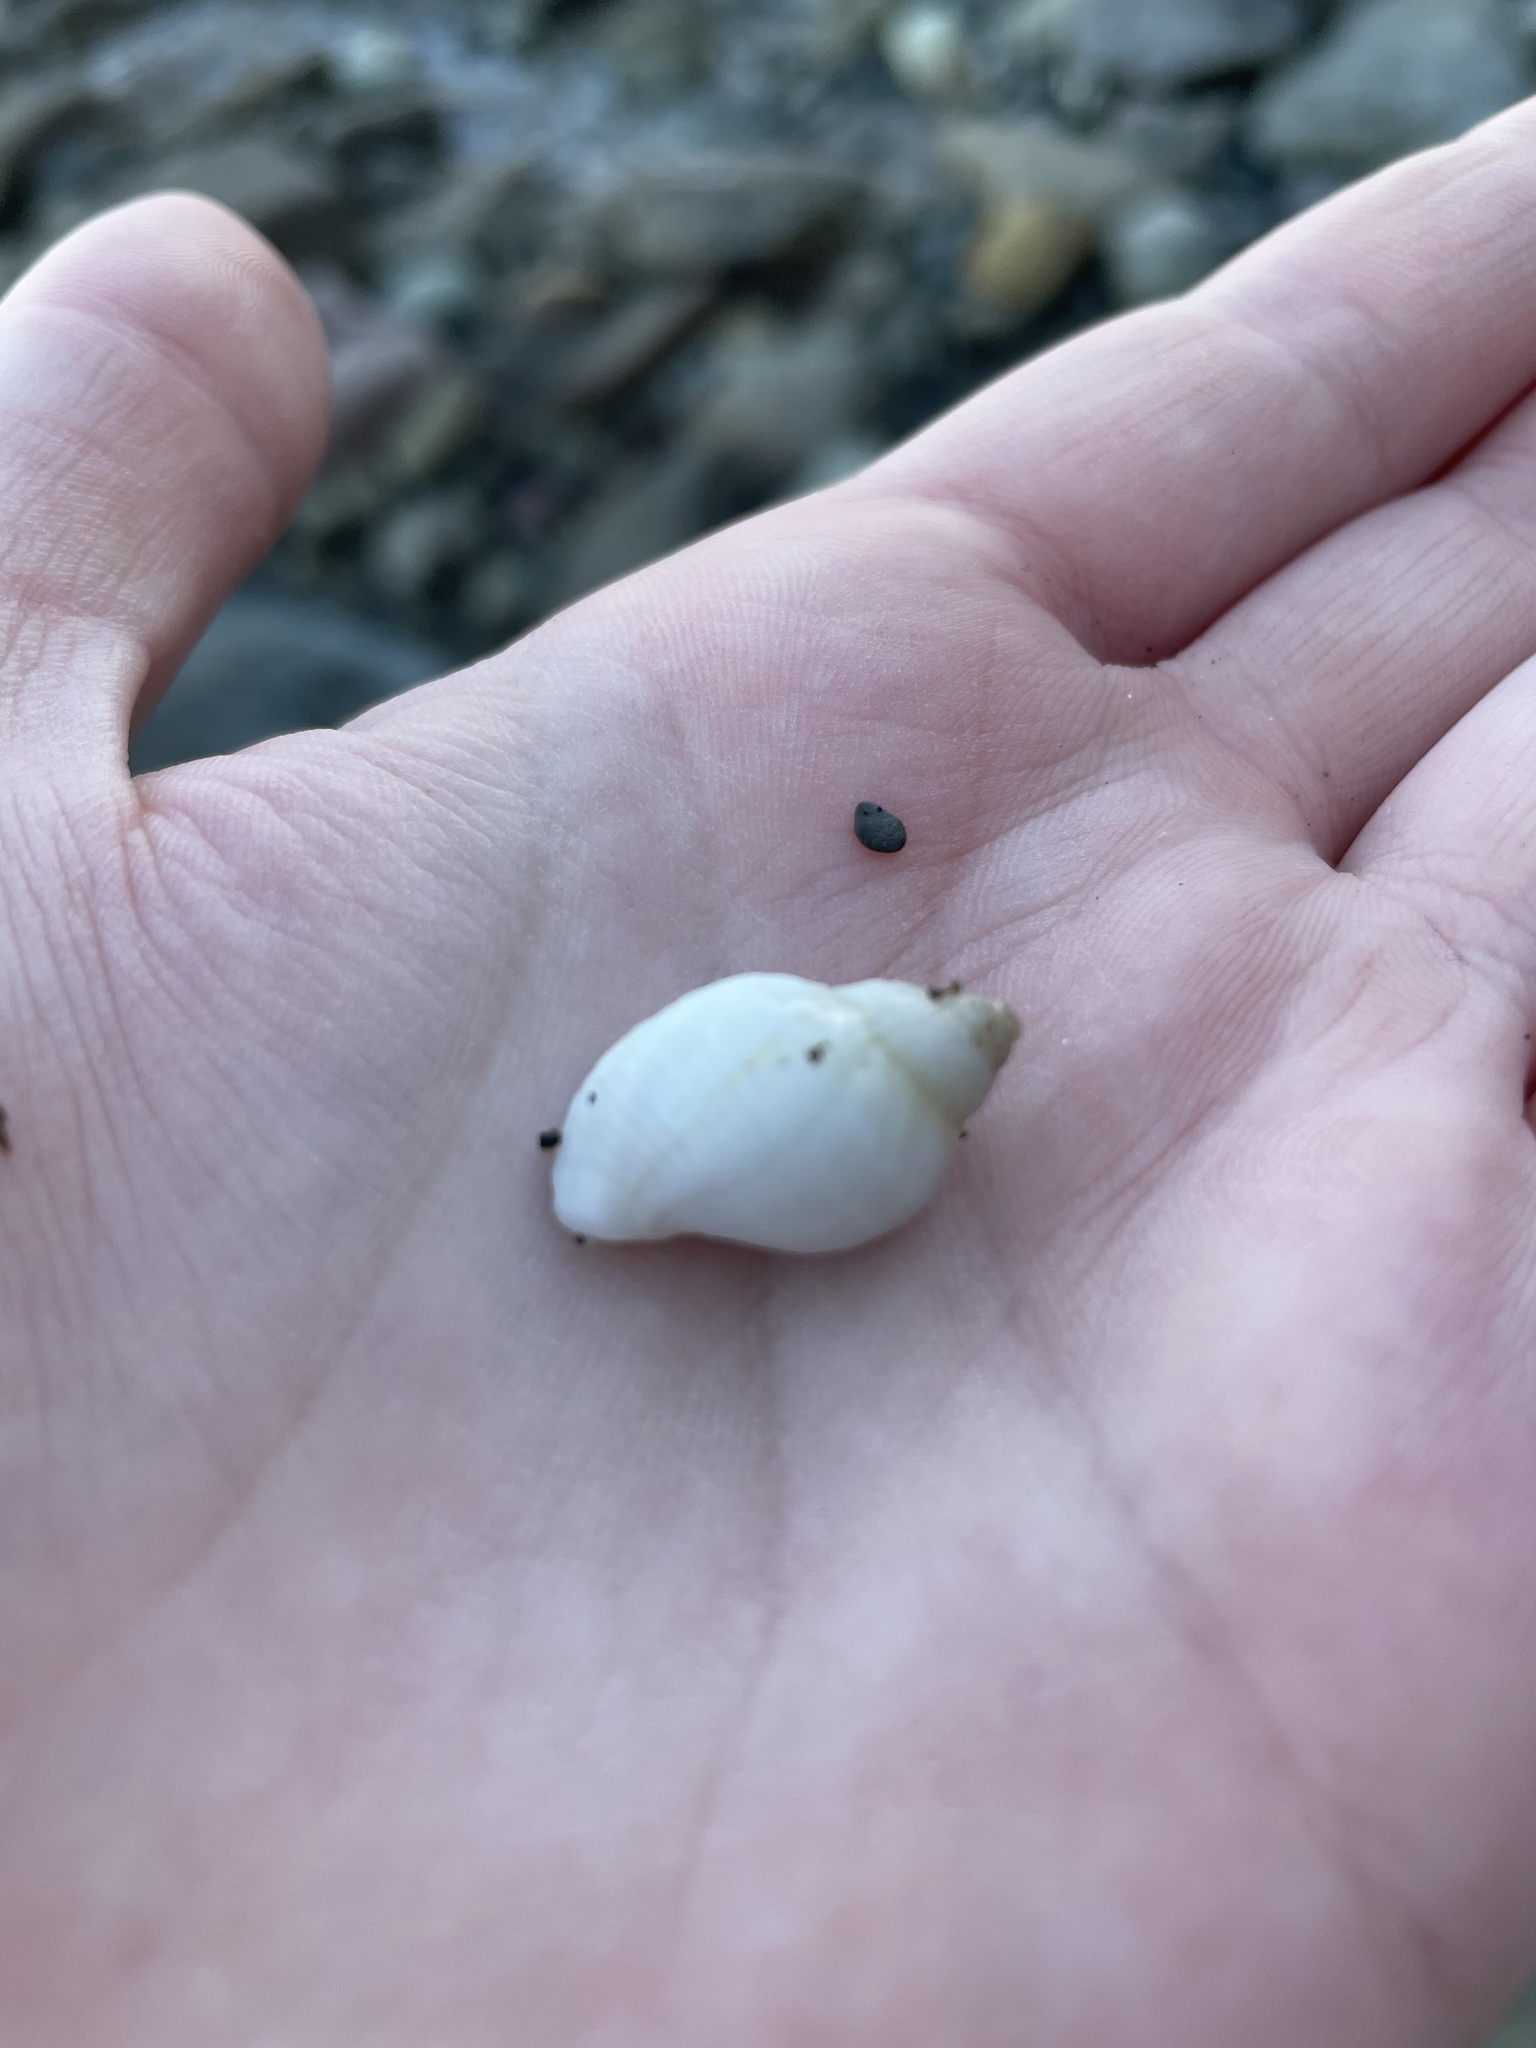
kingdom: Animalia
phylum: Mollusca
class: Gastropoda
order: Neogastropoda
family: Muricidae
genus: Nucella
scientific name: Nucella lapillus
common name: Dog whelk
